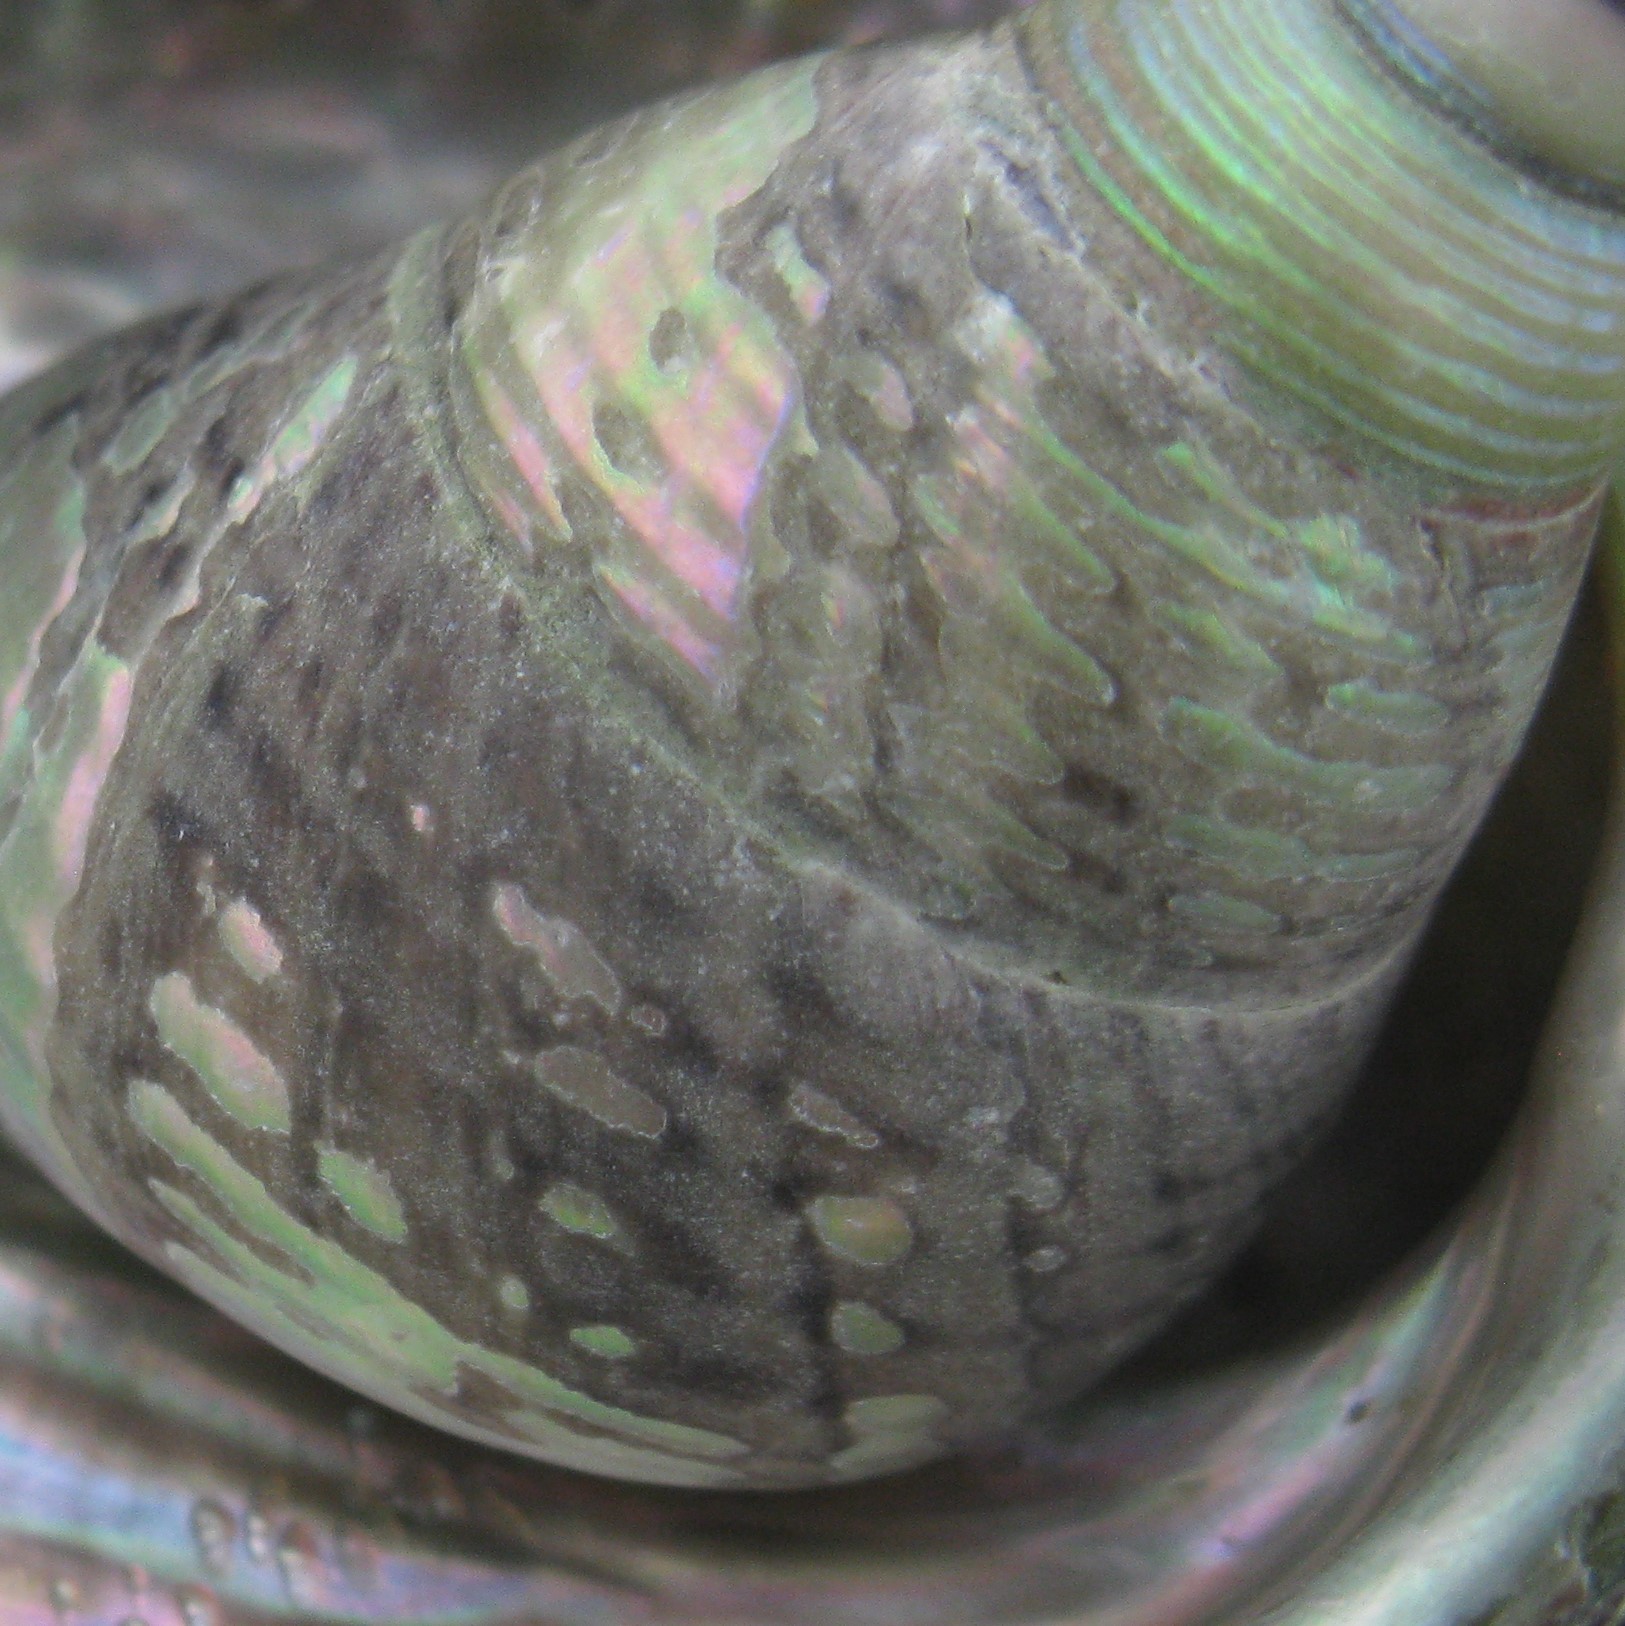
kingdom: Animalia
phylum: Mollusca
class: Gastropoda
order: Trochida
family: Trochidae
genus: Cantharidus
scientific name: Cantharidus opalus
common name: Opal jewel topsnail
